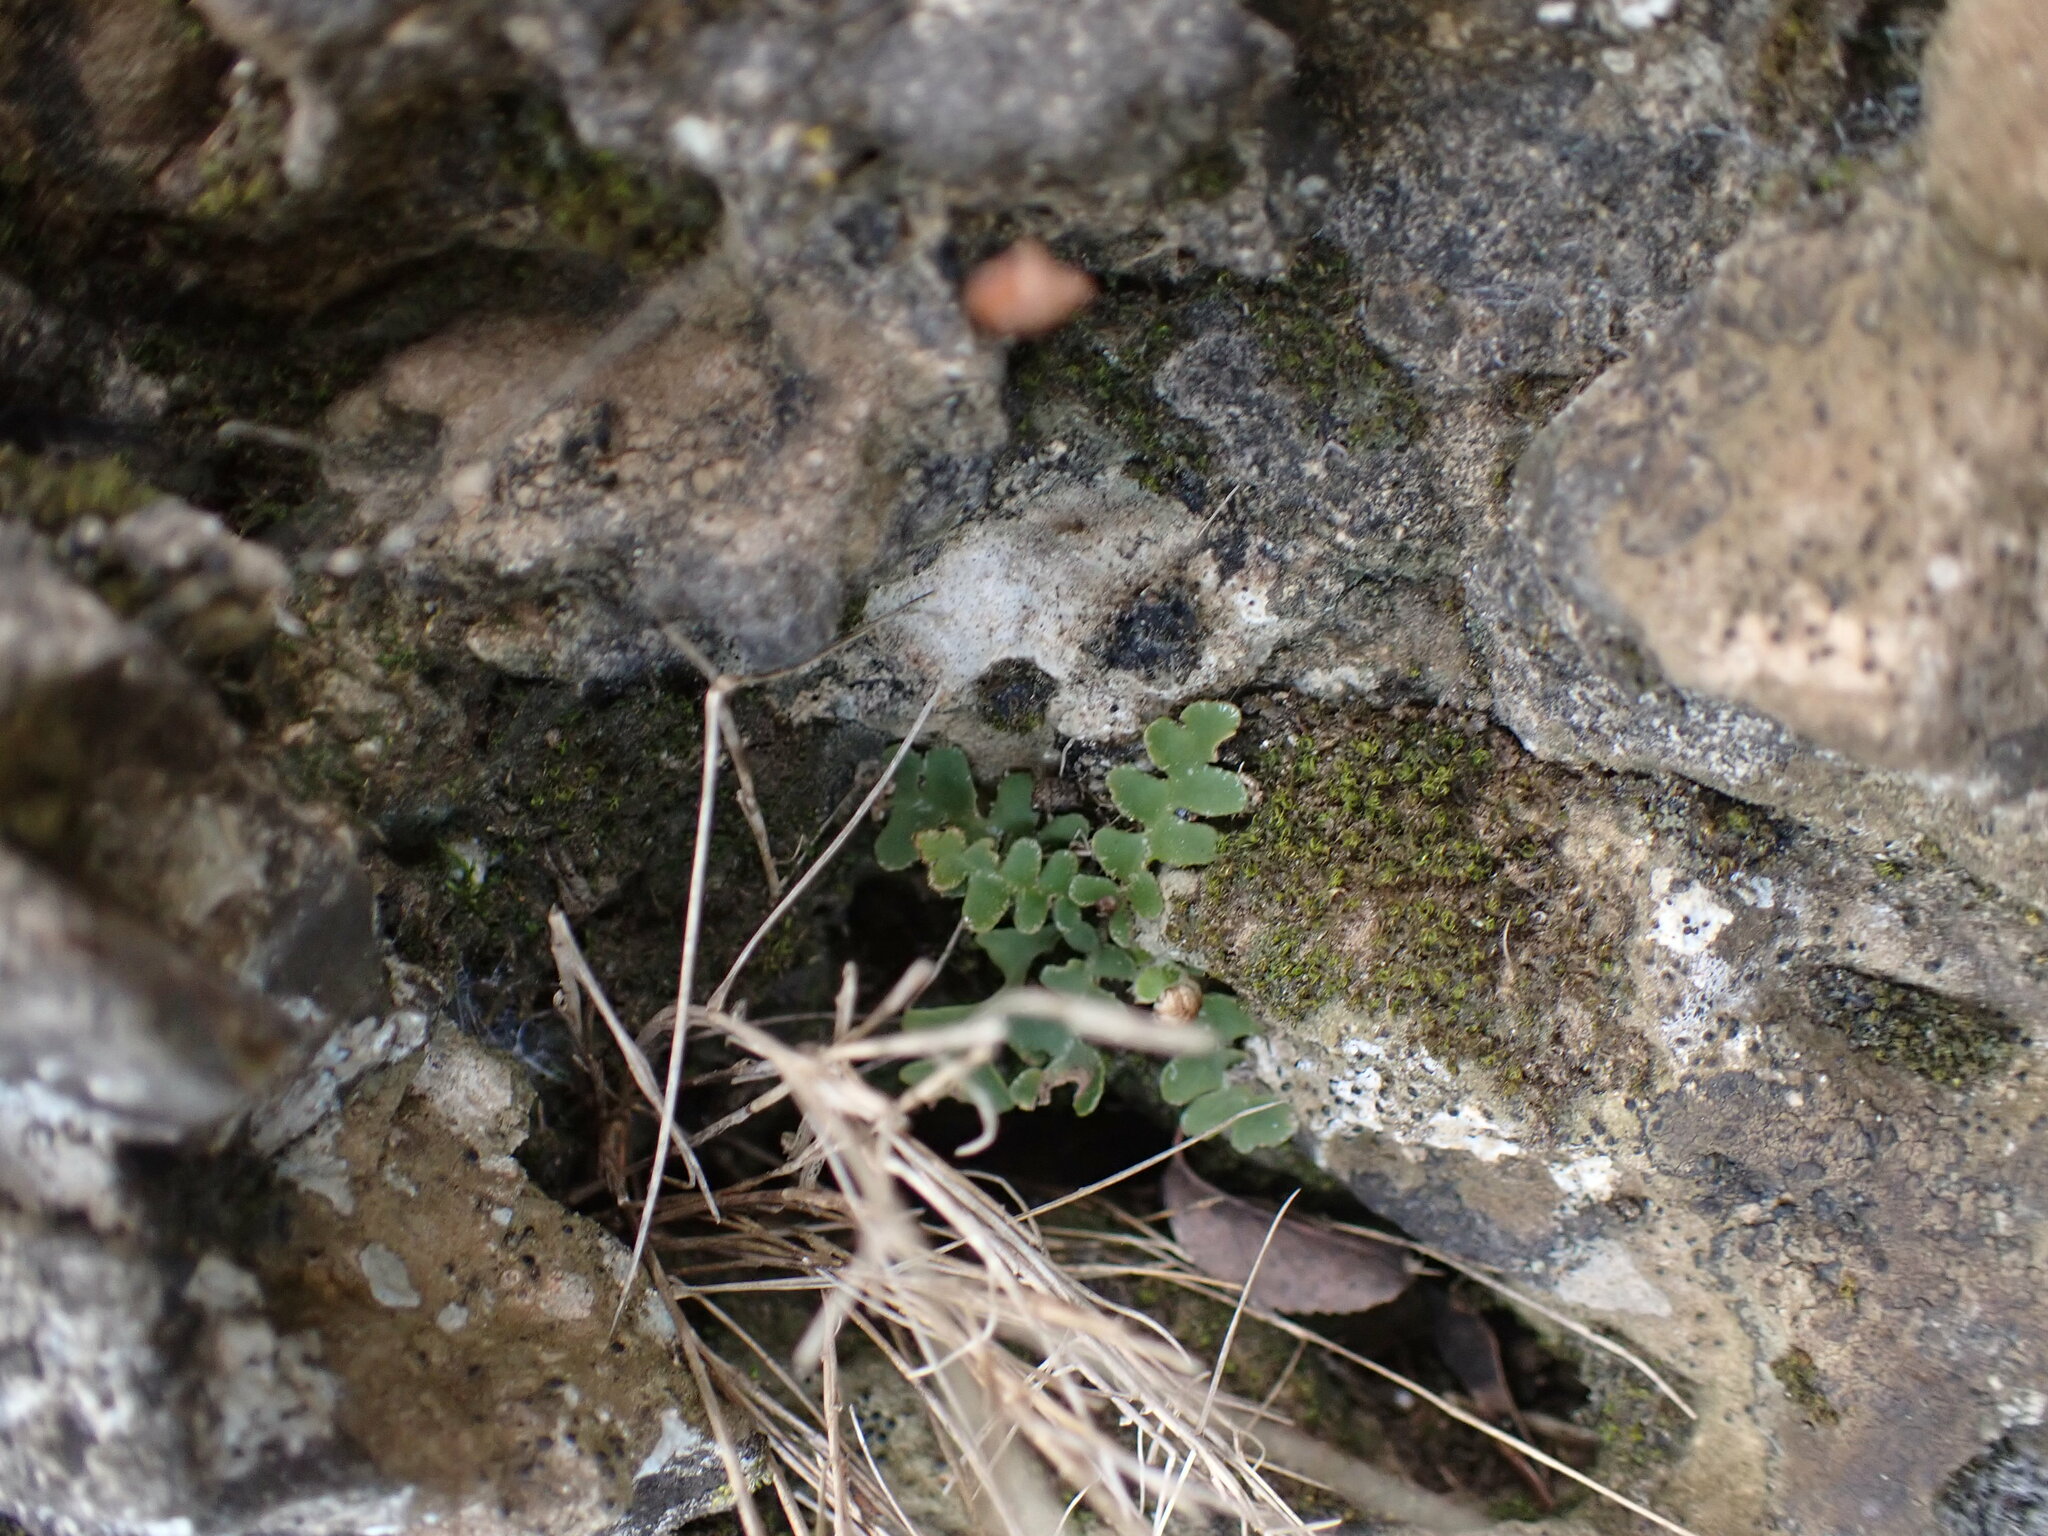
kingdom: Plantae
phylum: Tracheophyta
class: Polypodiopsida
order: Polypodiales
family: Aspleniaceae
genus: Asplenium
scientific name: Asplenium ceterach
